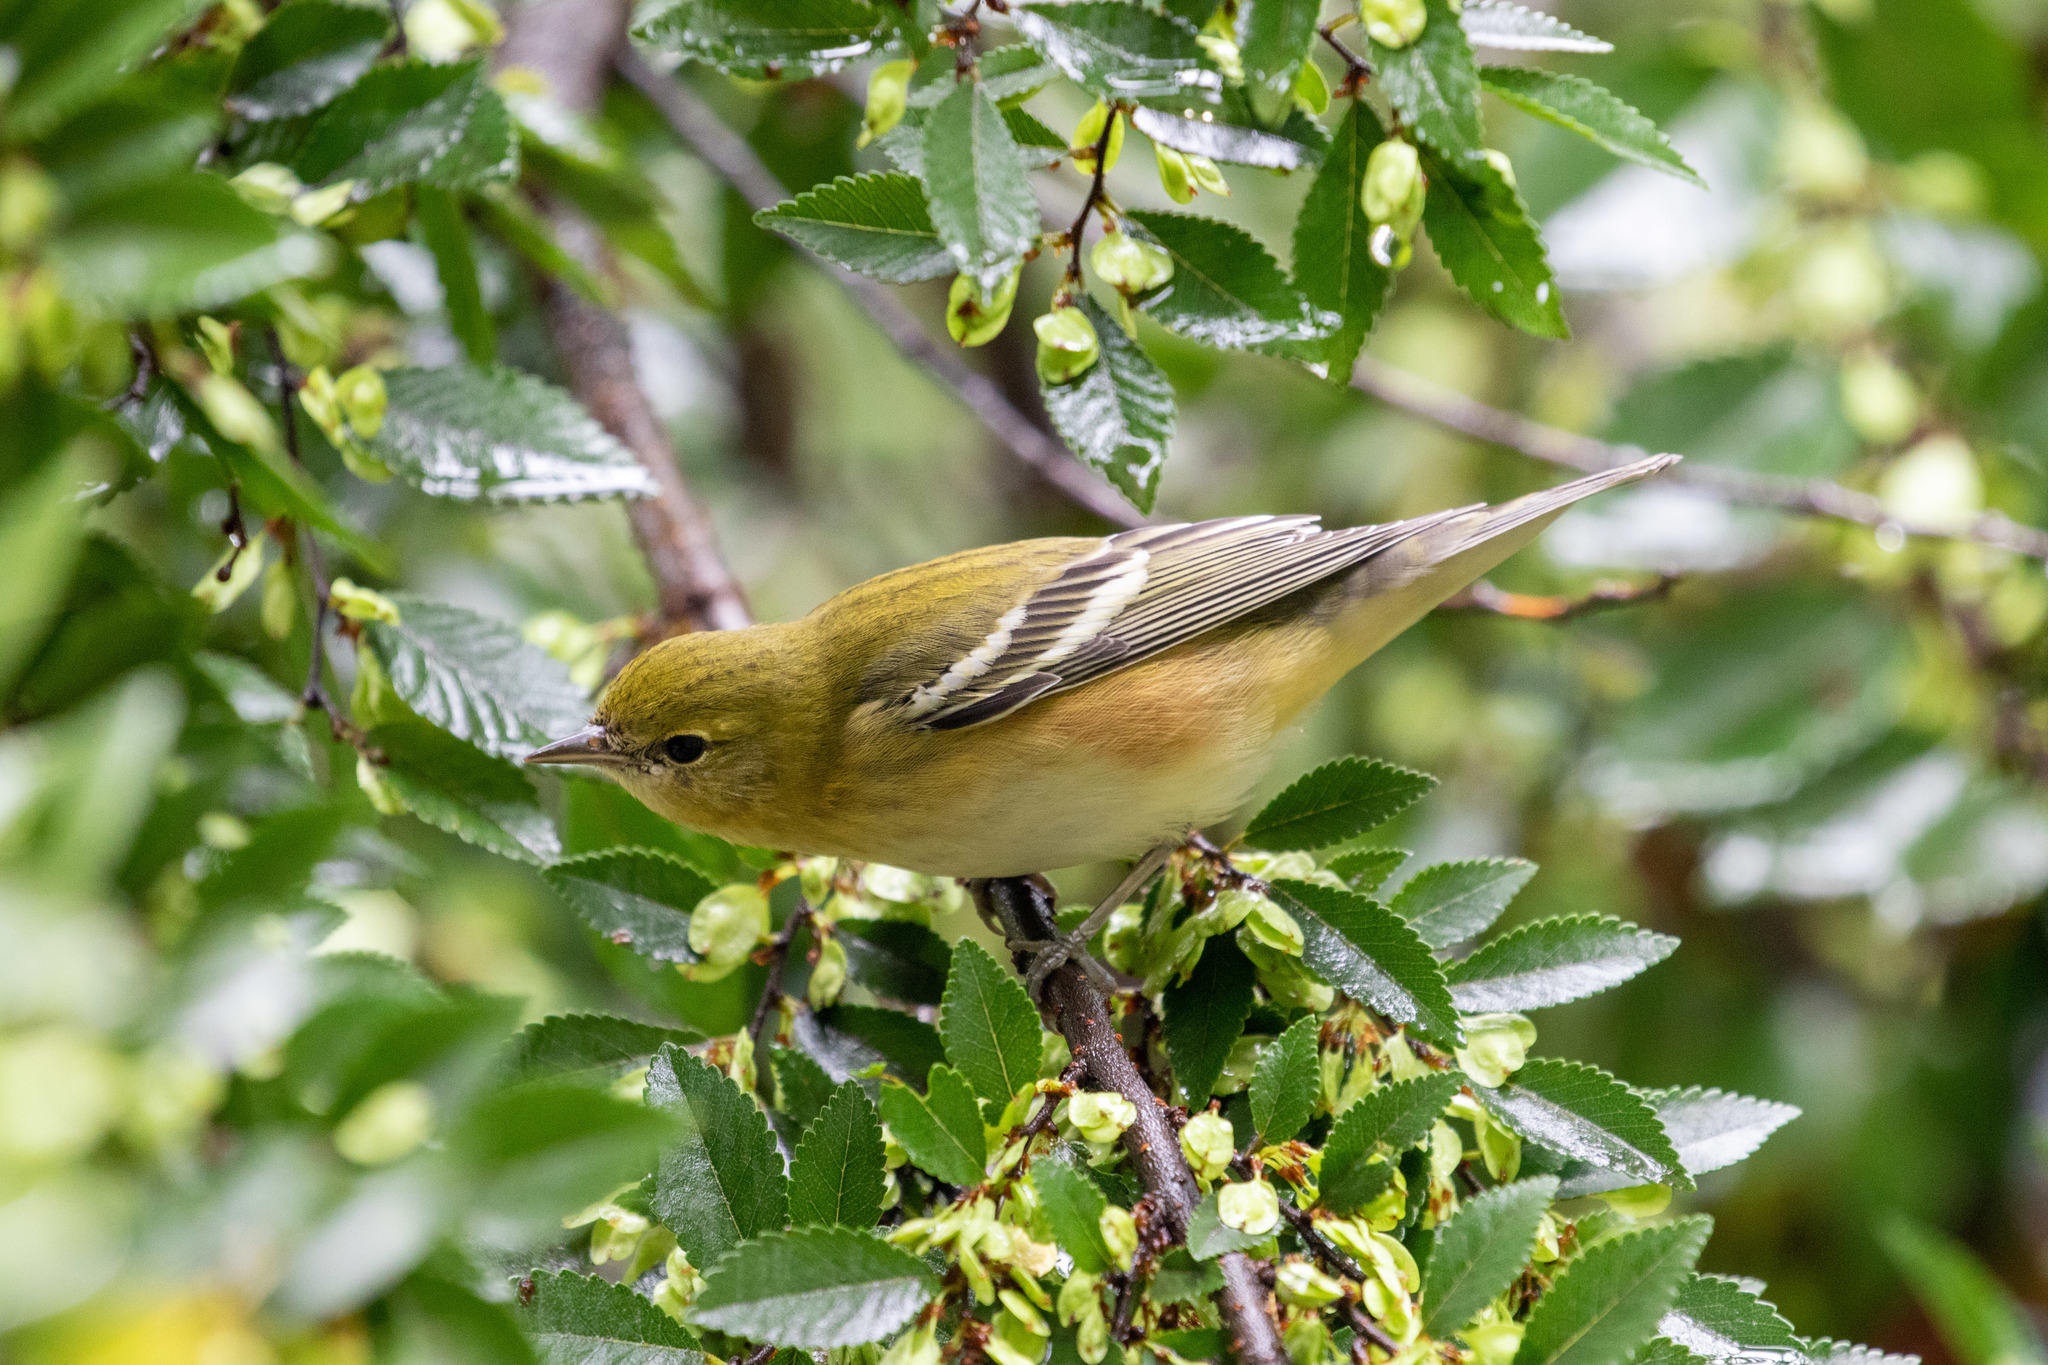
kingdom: Animalia
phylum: Chordata
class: Aves
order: Passeriformes
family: Parulidae
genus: Setophaga
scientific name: Setophaga castanea
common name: Bay-breasted warbler
